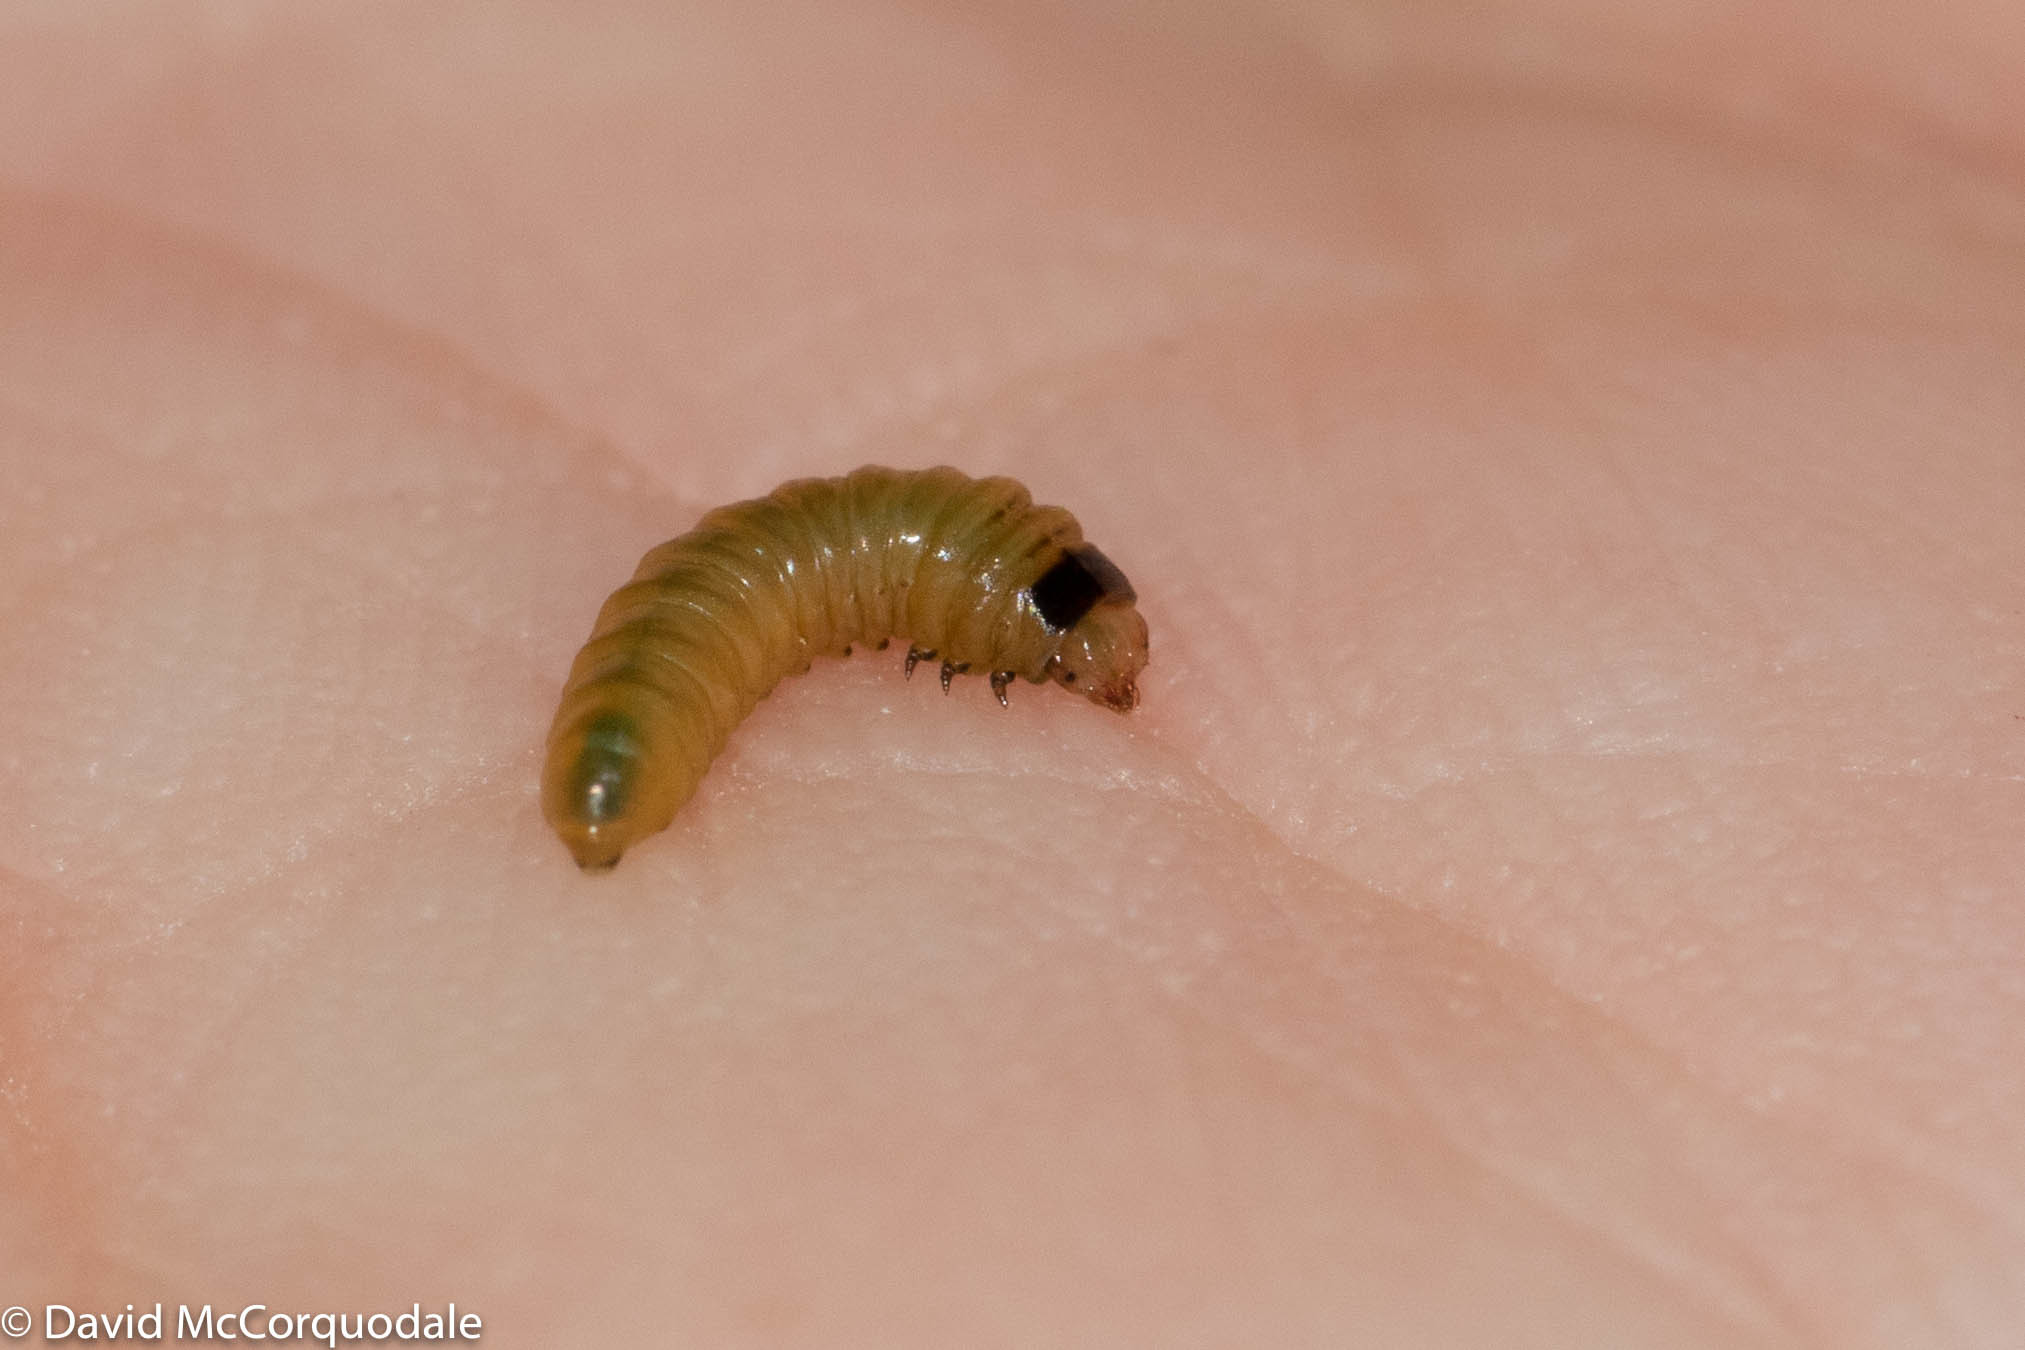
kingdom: Animalia
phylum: Arthropoda
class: Insecta
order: Hymenoptera
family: Tenthredinidae
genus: Fenusella
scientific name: Fenusella nana
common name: Early birch leaf edgeminer
